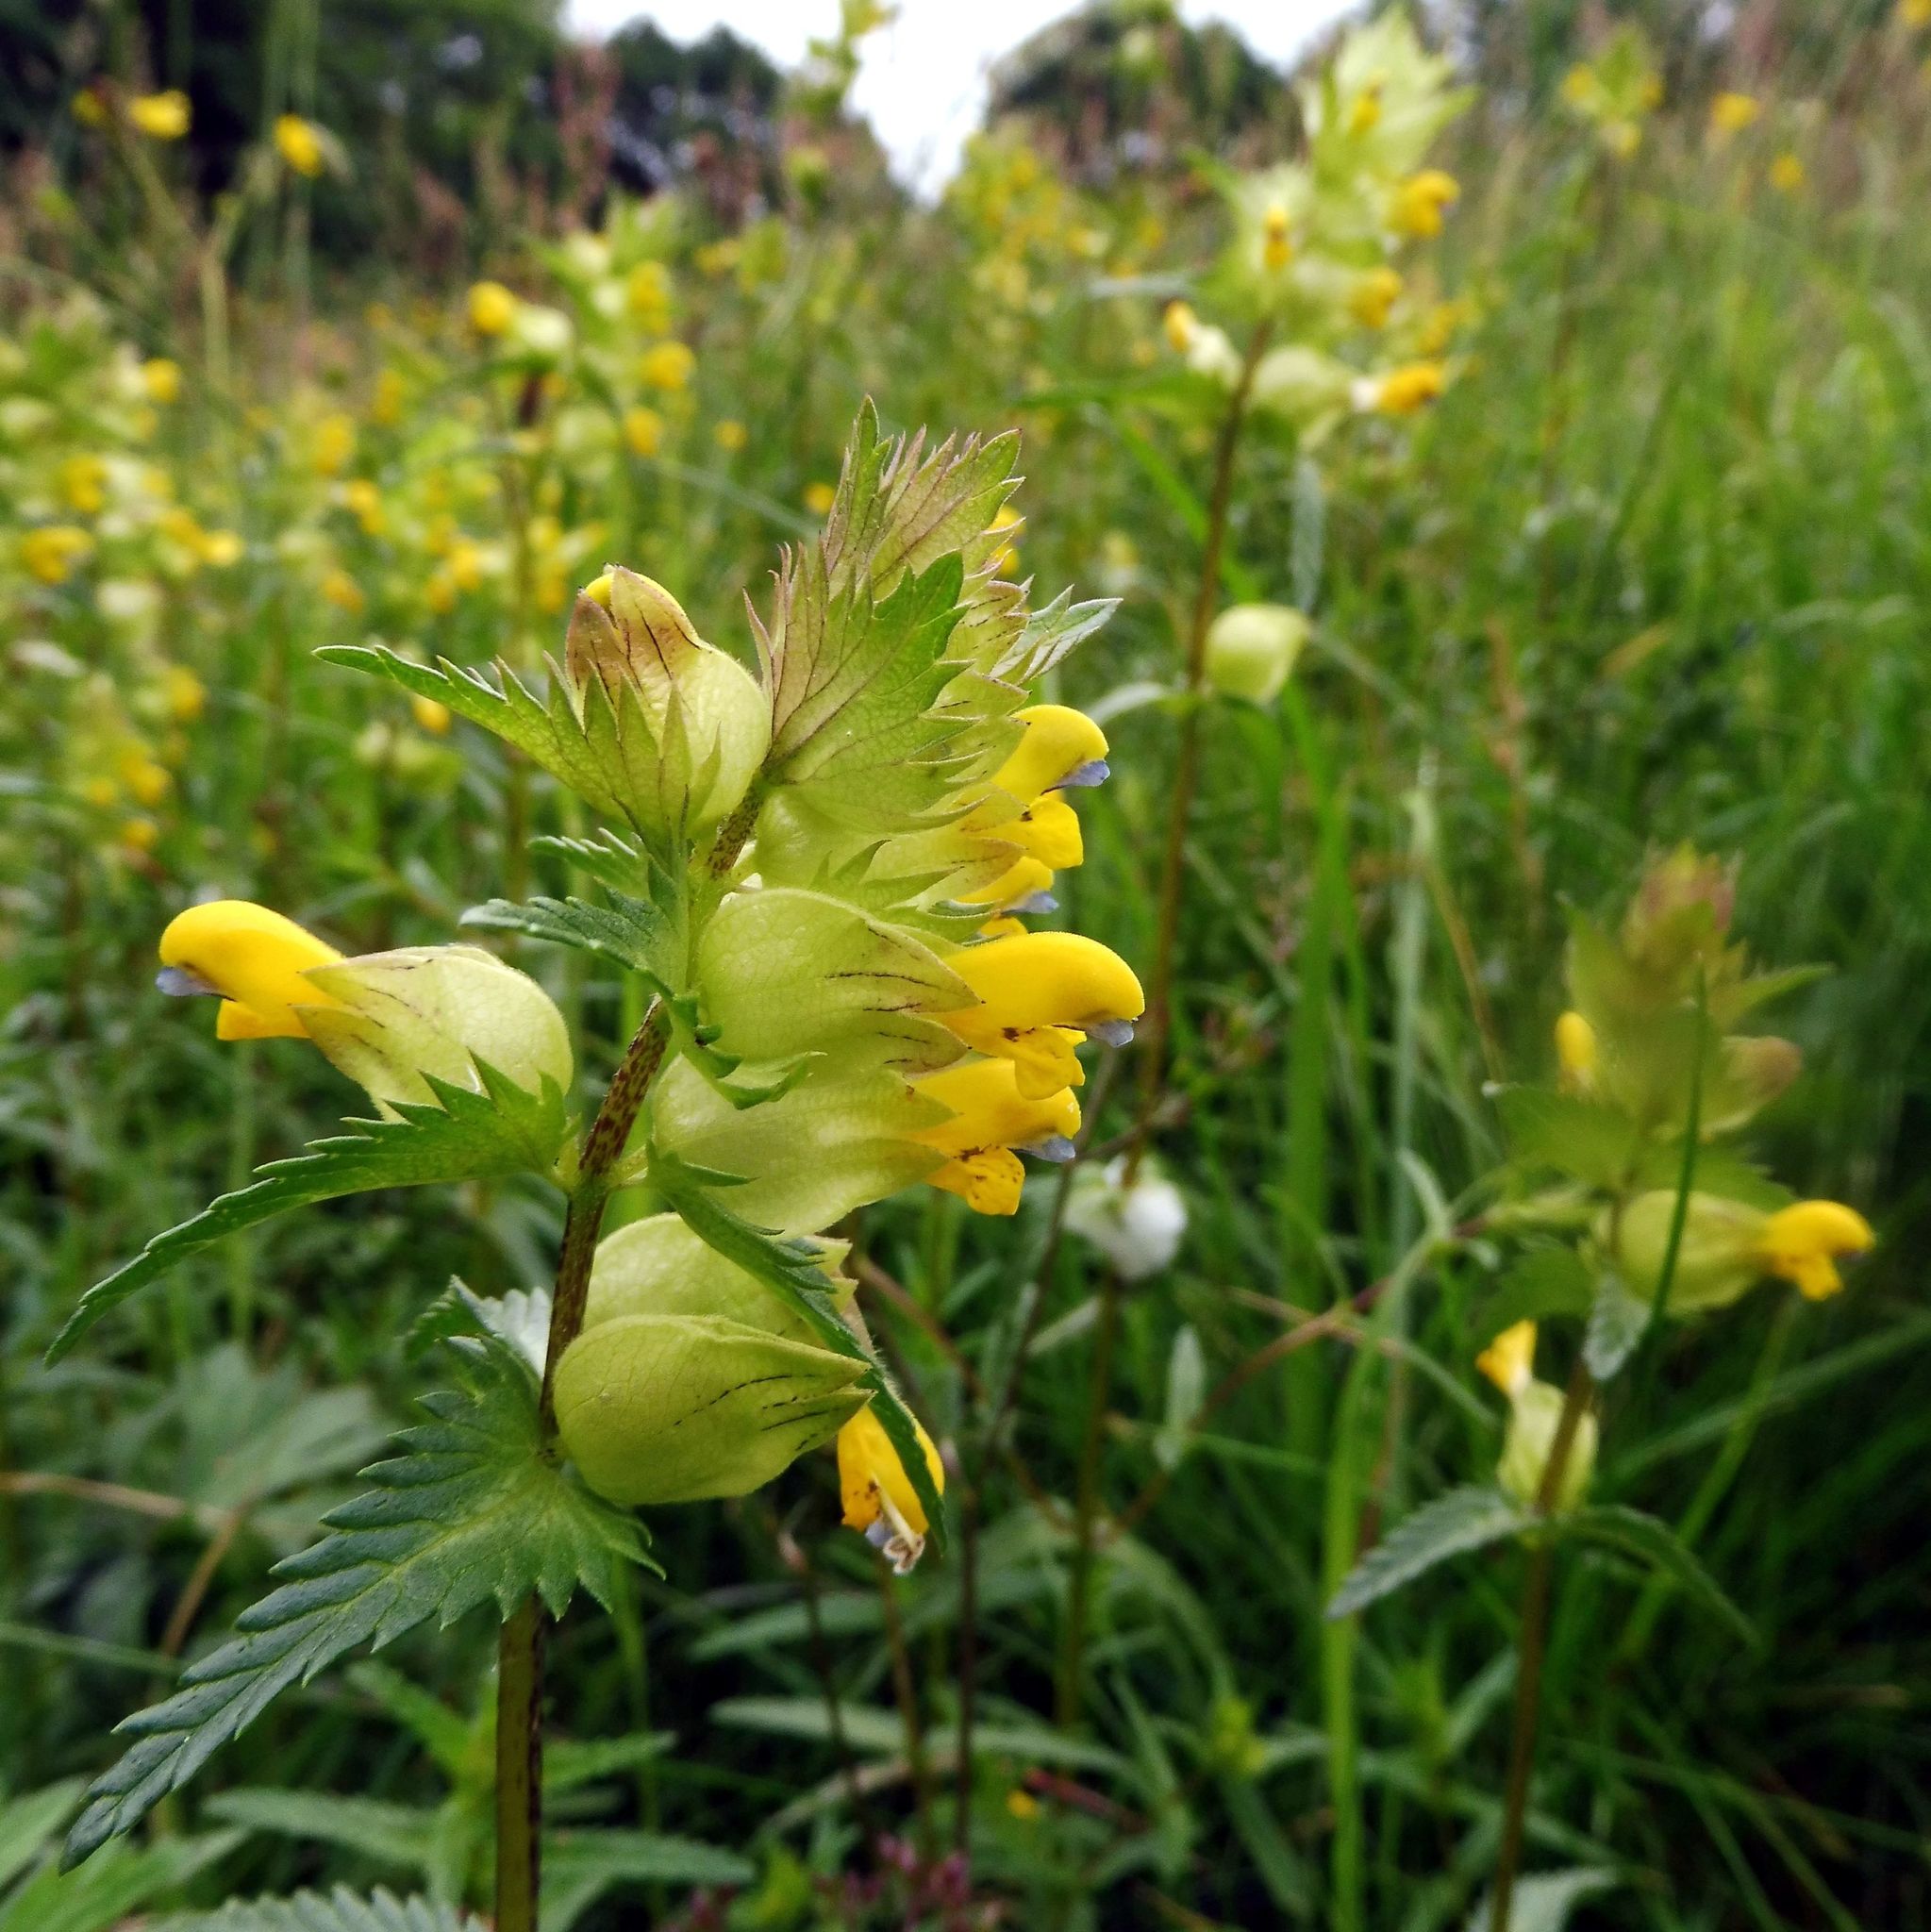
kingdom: Plantae
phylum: Tracheophyta
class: Magnoliopsida
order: Lamiales
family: Orobanchaceae
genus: Rhinanthus
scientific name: Rhinanthus minor
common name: Yellow-rattle
